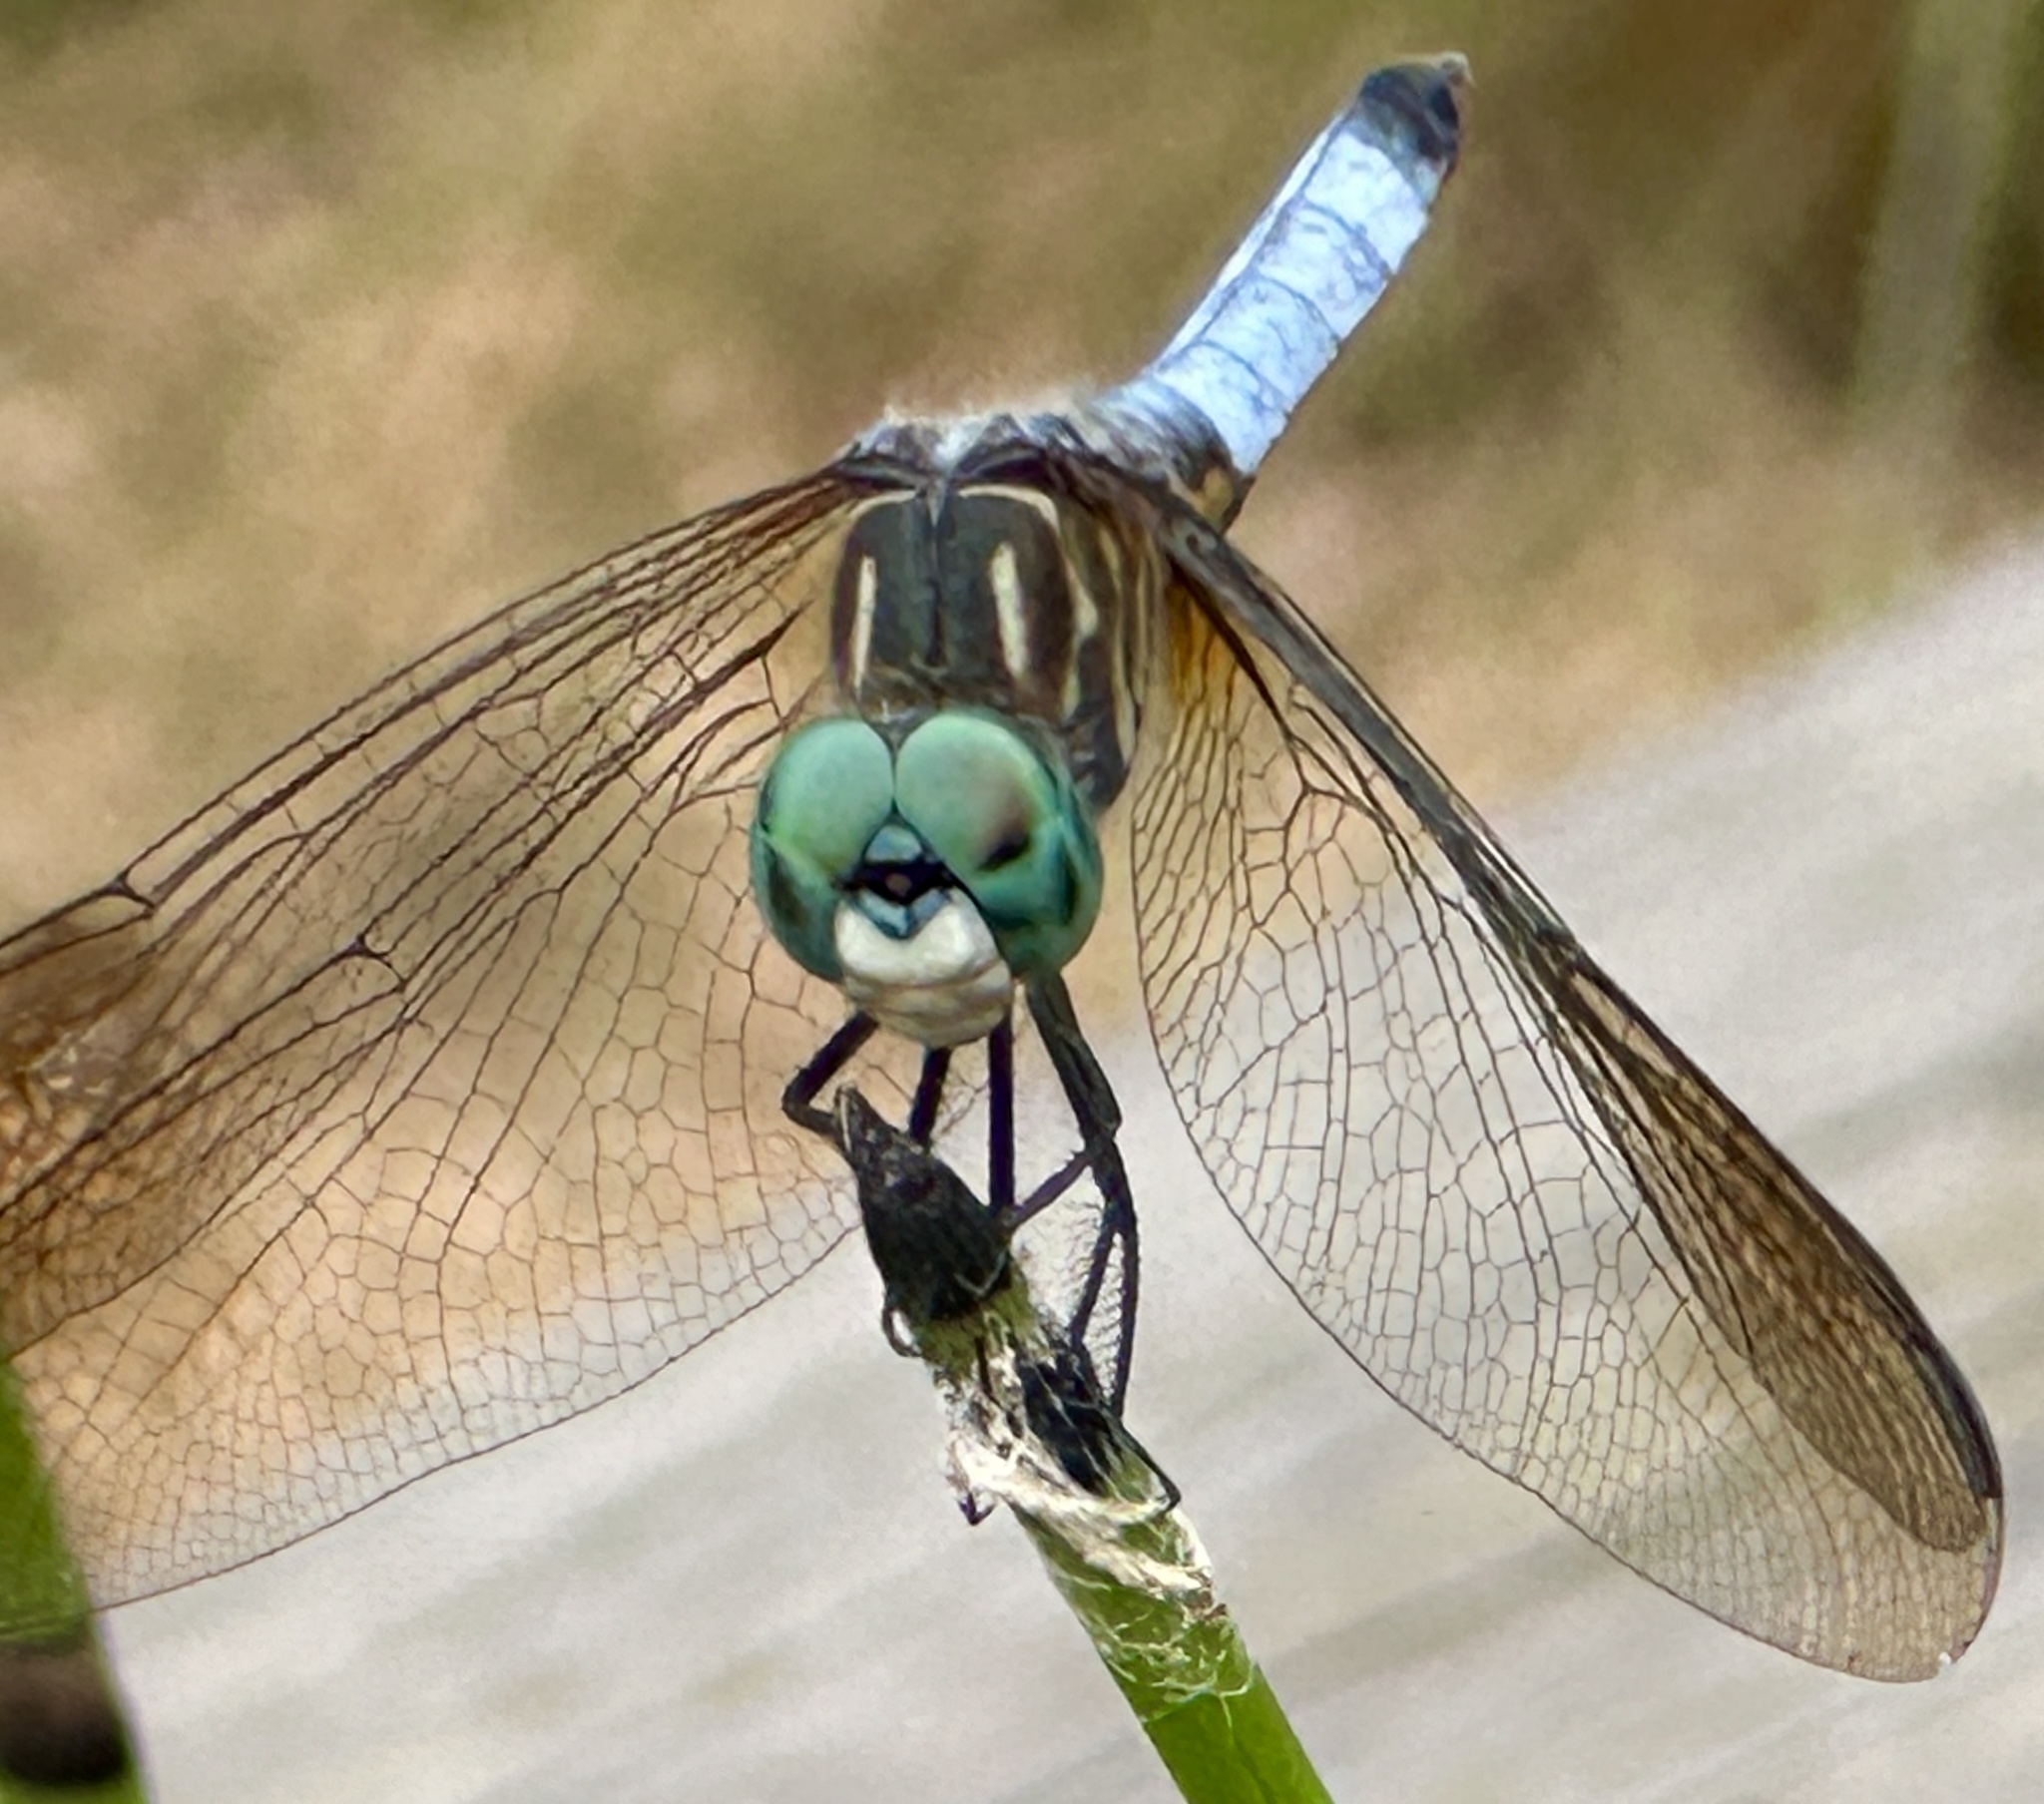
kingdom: Animalia
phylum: Arthropoda
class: Insecta
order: Odonata
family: Libellulidae
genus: Pachydiplax
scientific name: Pachydiplax longipennis
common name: Blue dasher
